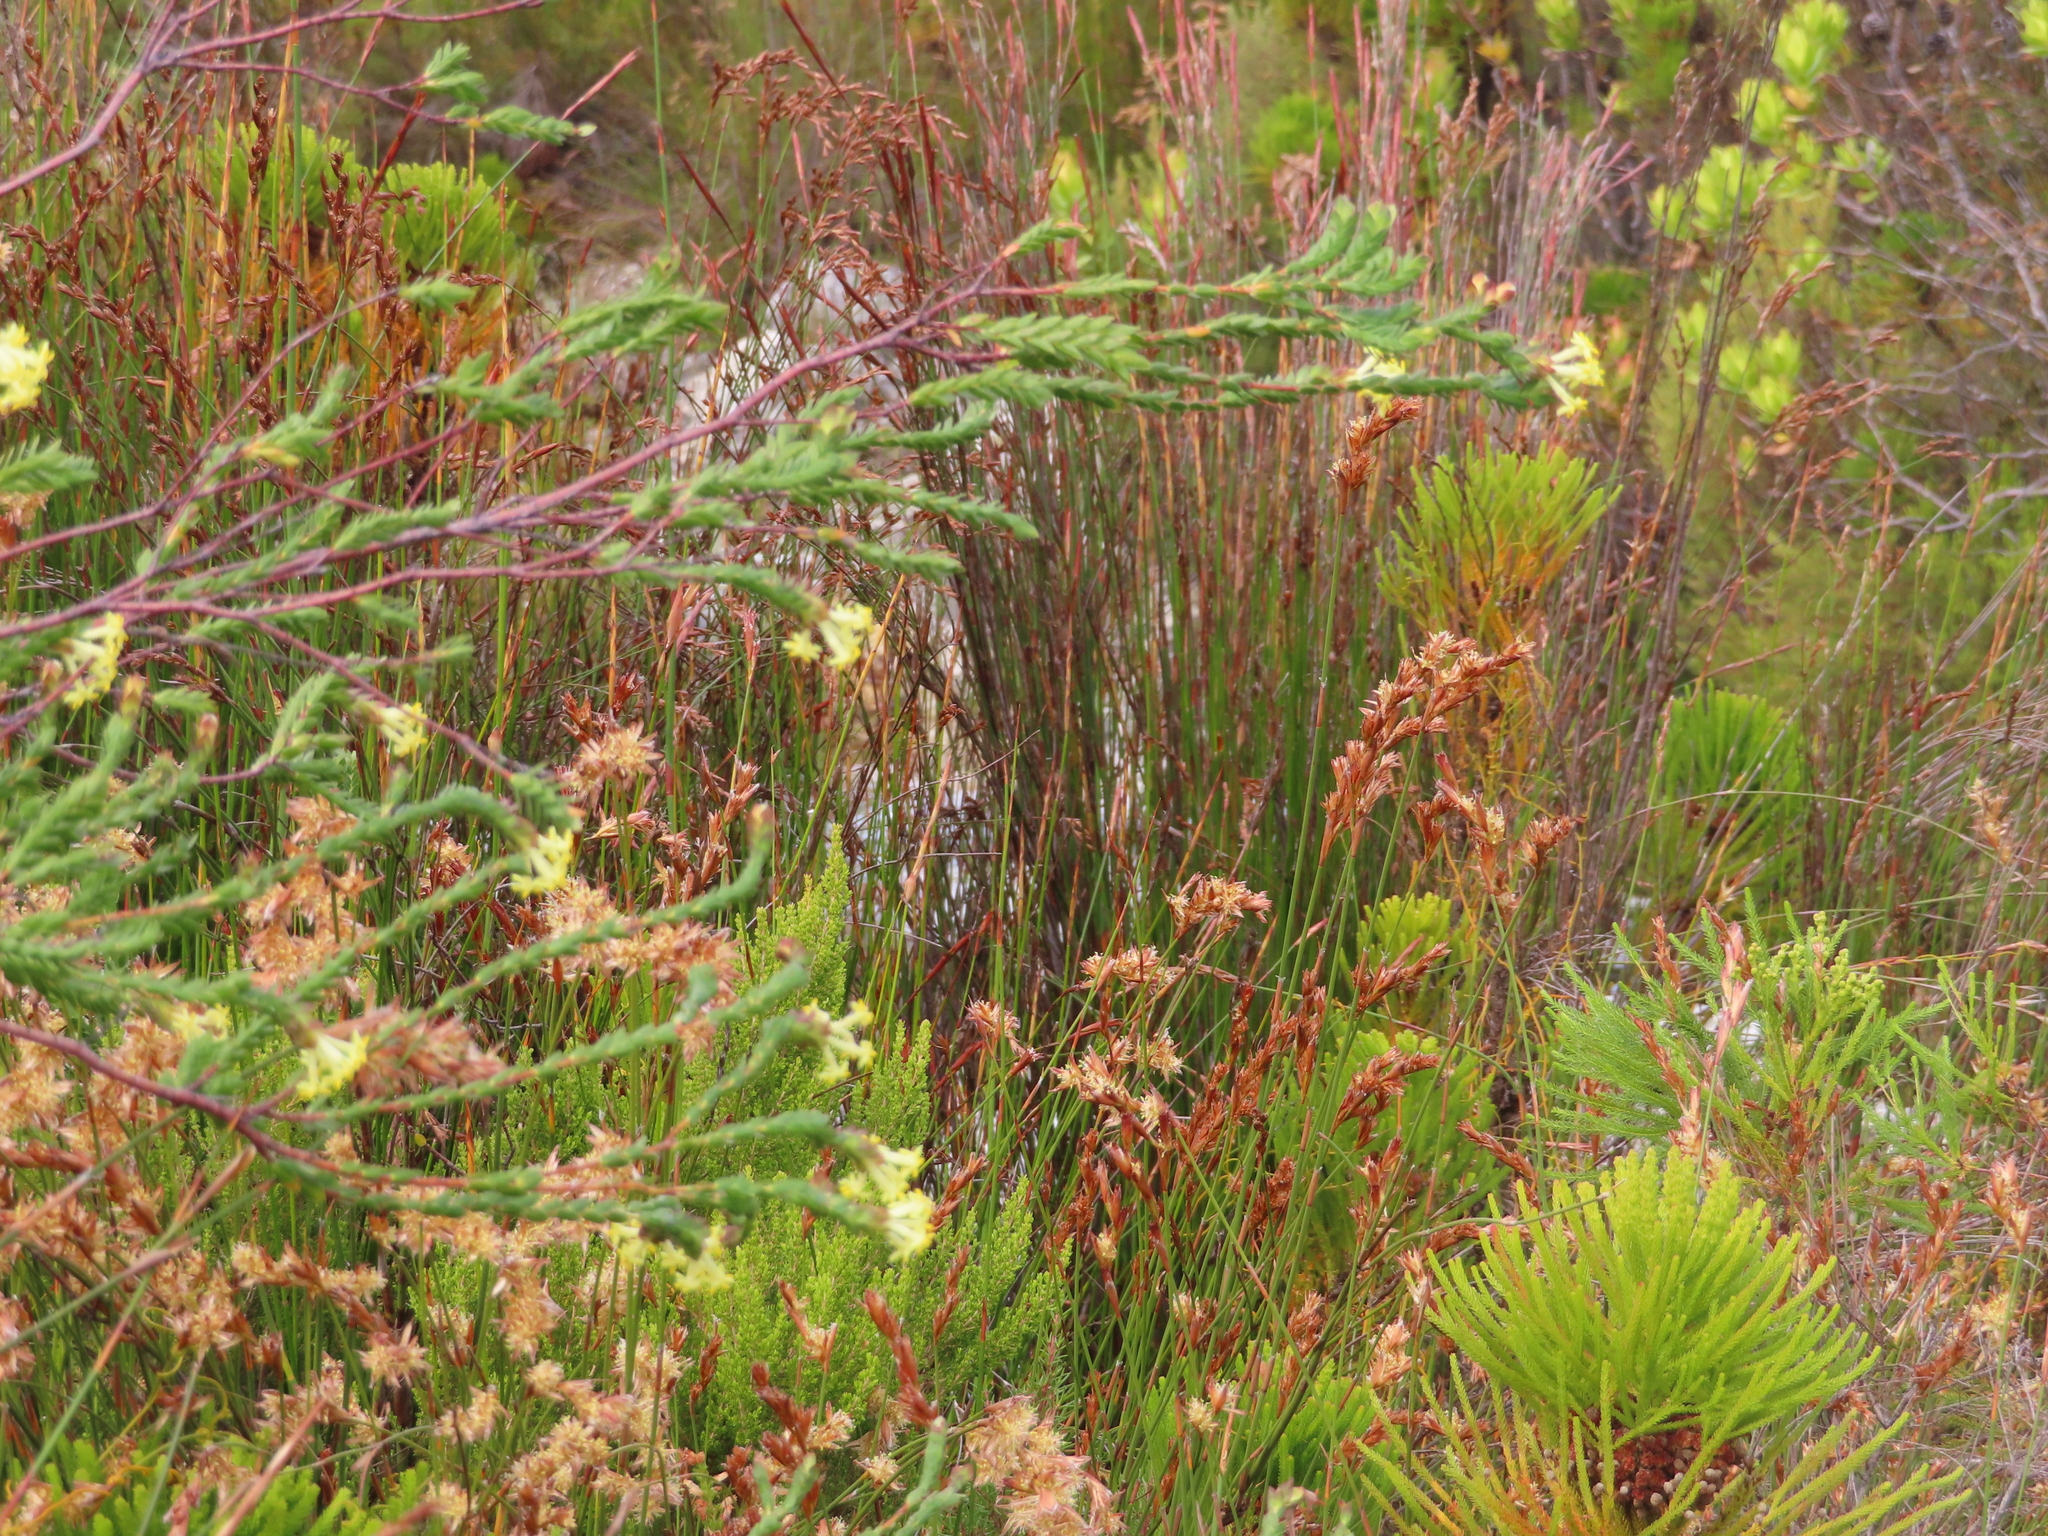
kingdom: Plantae
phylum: Tracheophyta
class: Magnoliopsida
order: Malvales
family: Thymelaeaceae
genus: Gnidia
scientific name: Gnidia oppositifolia
